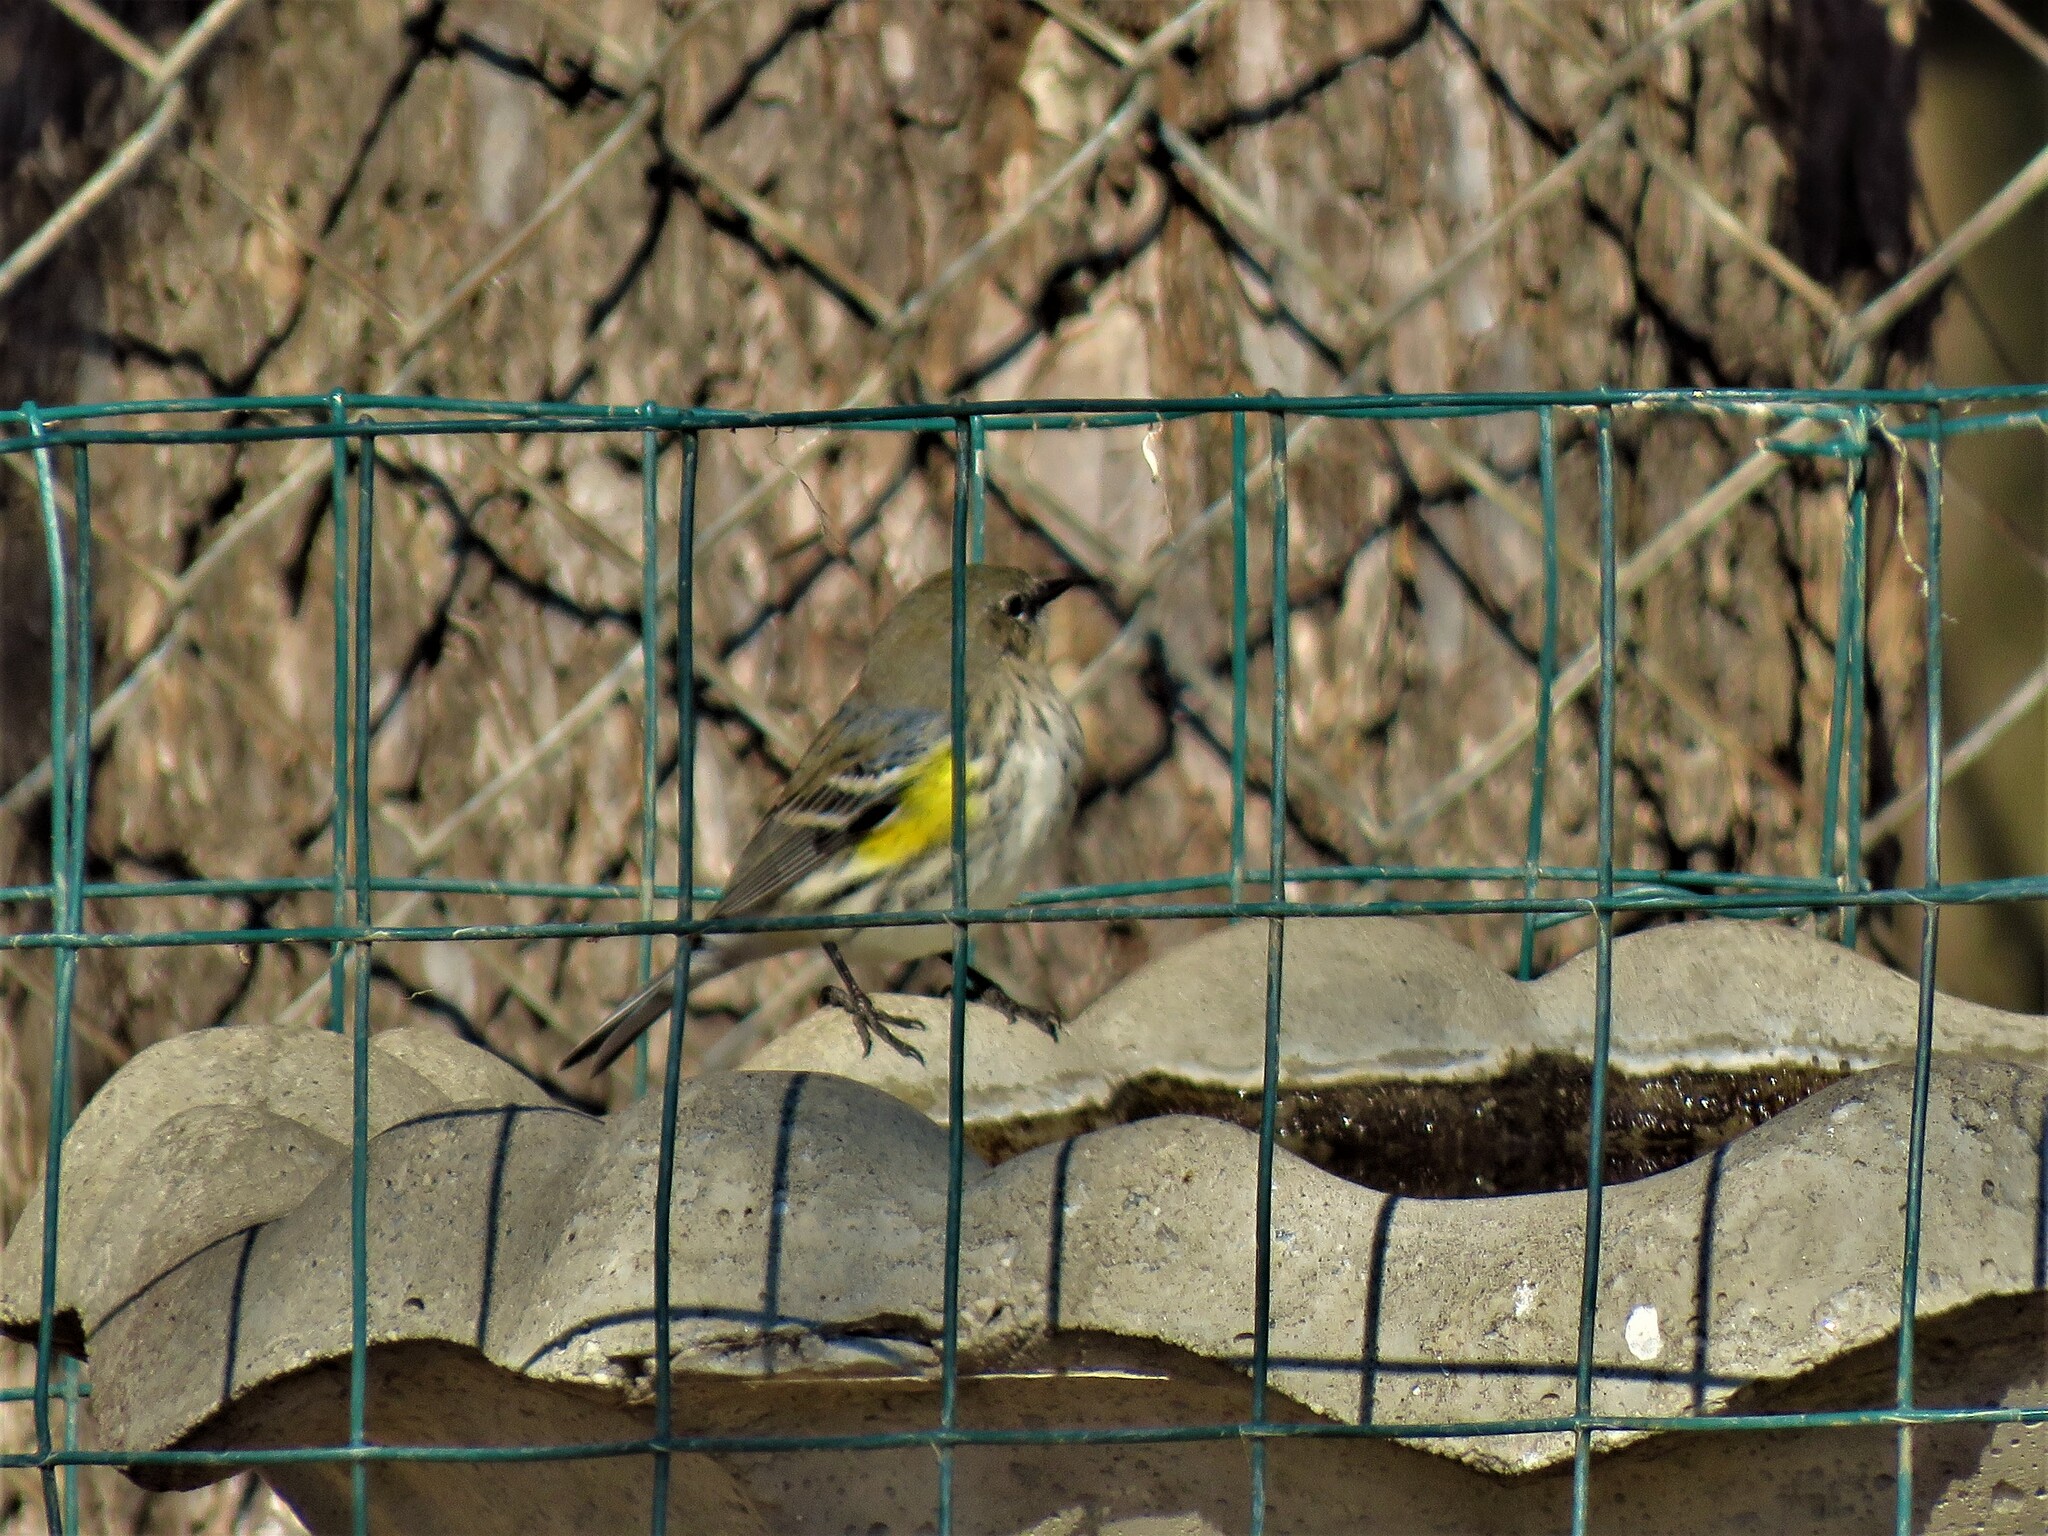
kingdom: Animalia
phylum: Chordata
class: Aves
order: Passeriformes
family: Parulidae
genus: Setophaga
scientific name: Setophaga coronata
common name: Myrtle warbler
